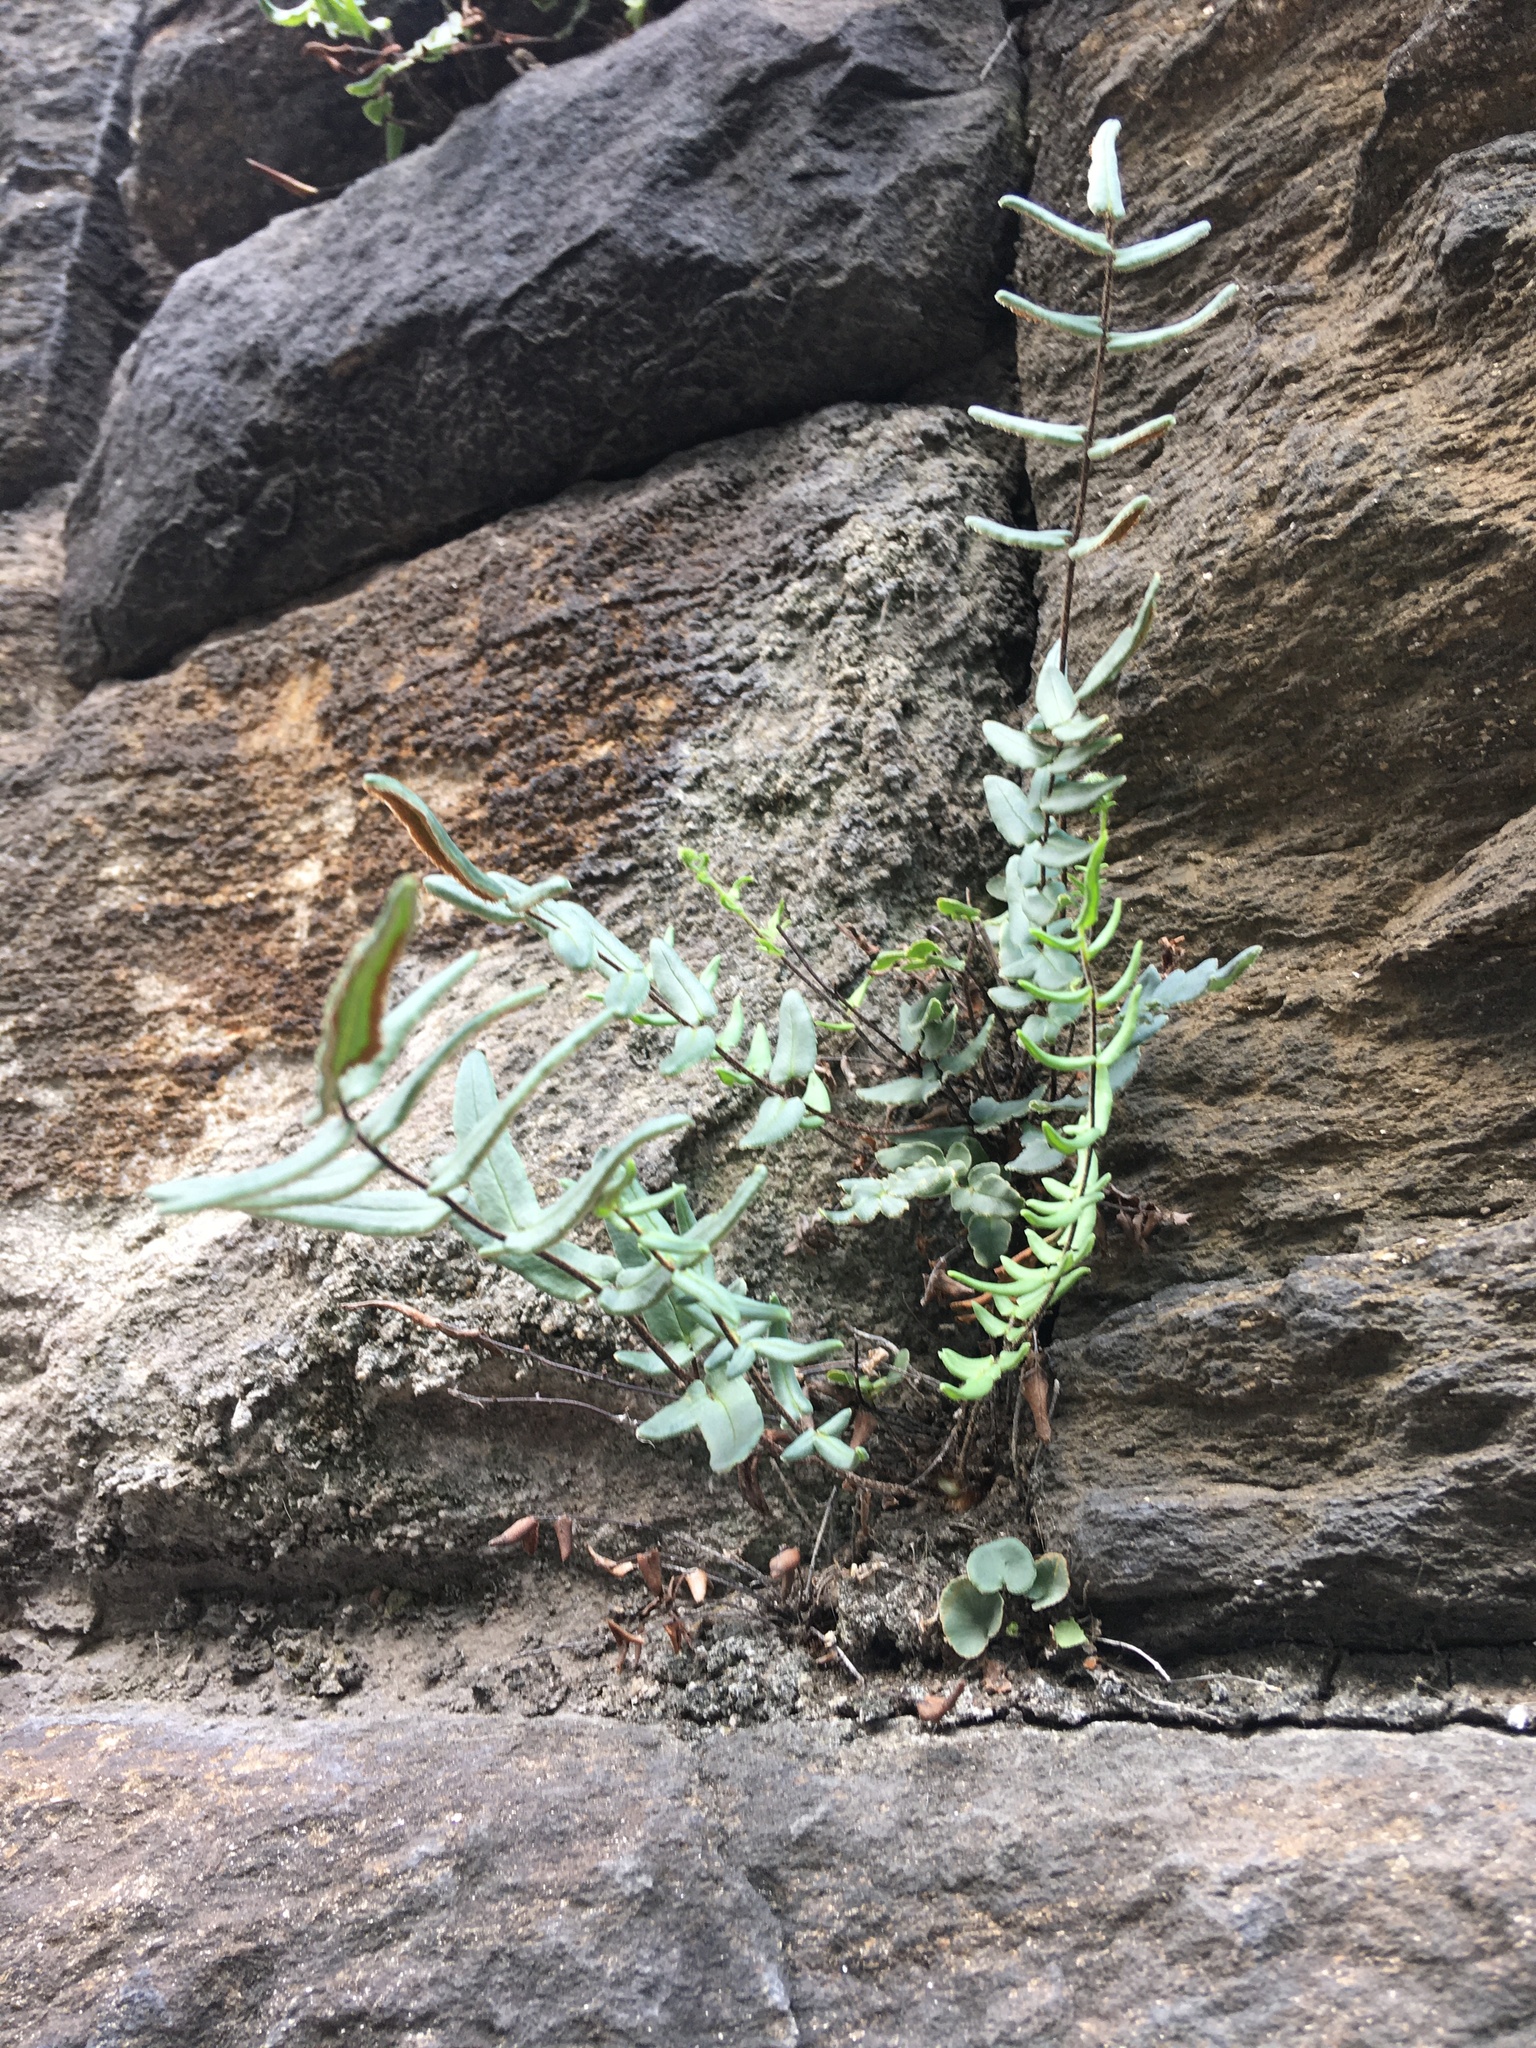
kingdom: Plantae
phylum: Tracheophyta
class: Polypodiopsida
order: Polypodiales
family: Pteridaceae
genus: Pellaea
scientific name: Pellaea atropurpurea
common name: Hairy cliffbrake
